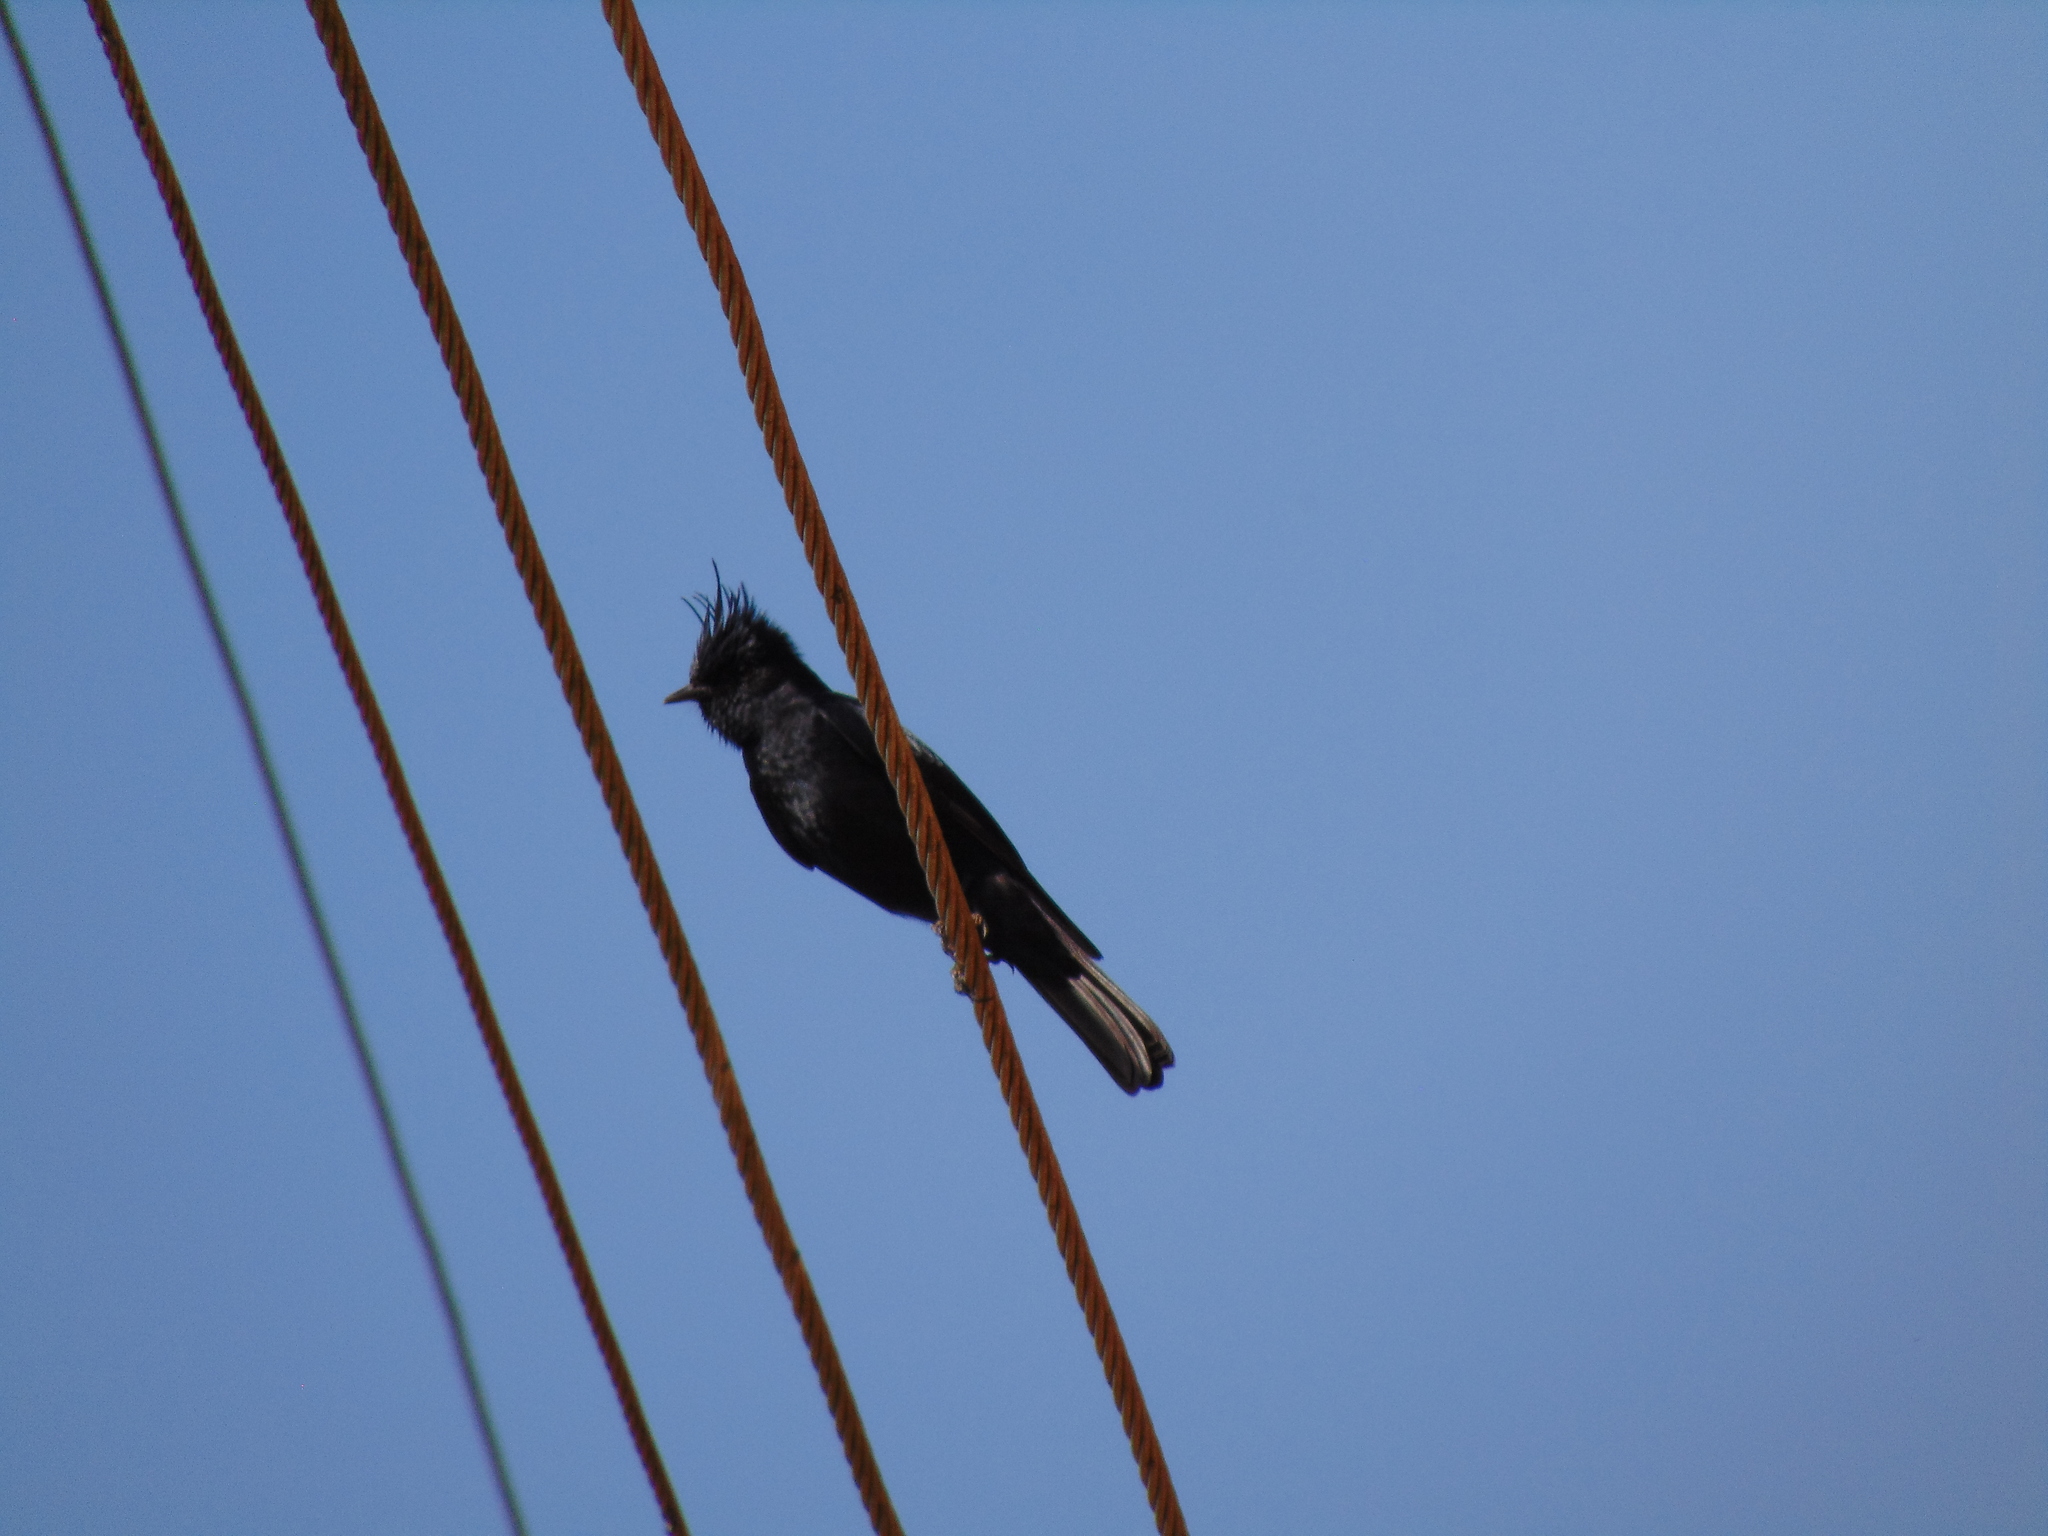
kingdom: Animalia
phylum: Chordata
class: Aves
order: Passeriformes
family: Tyrannidae
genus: Knipolegus
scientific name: Knipolegus lophotes
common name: Crested black tyrant
